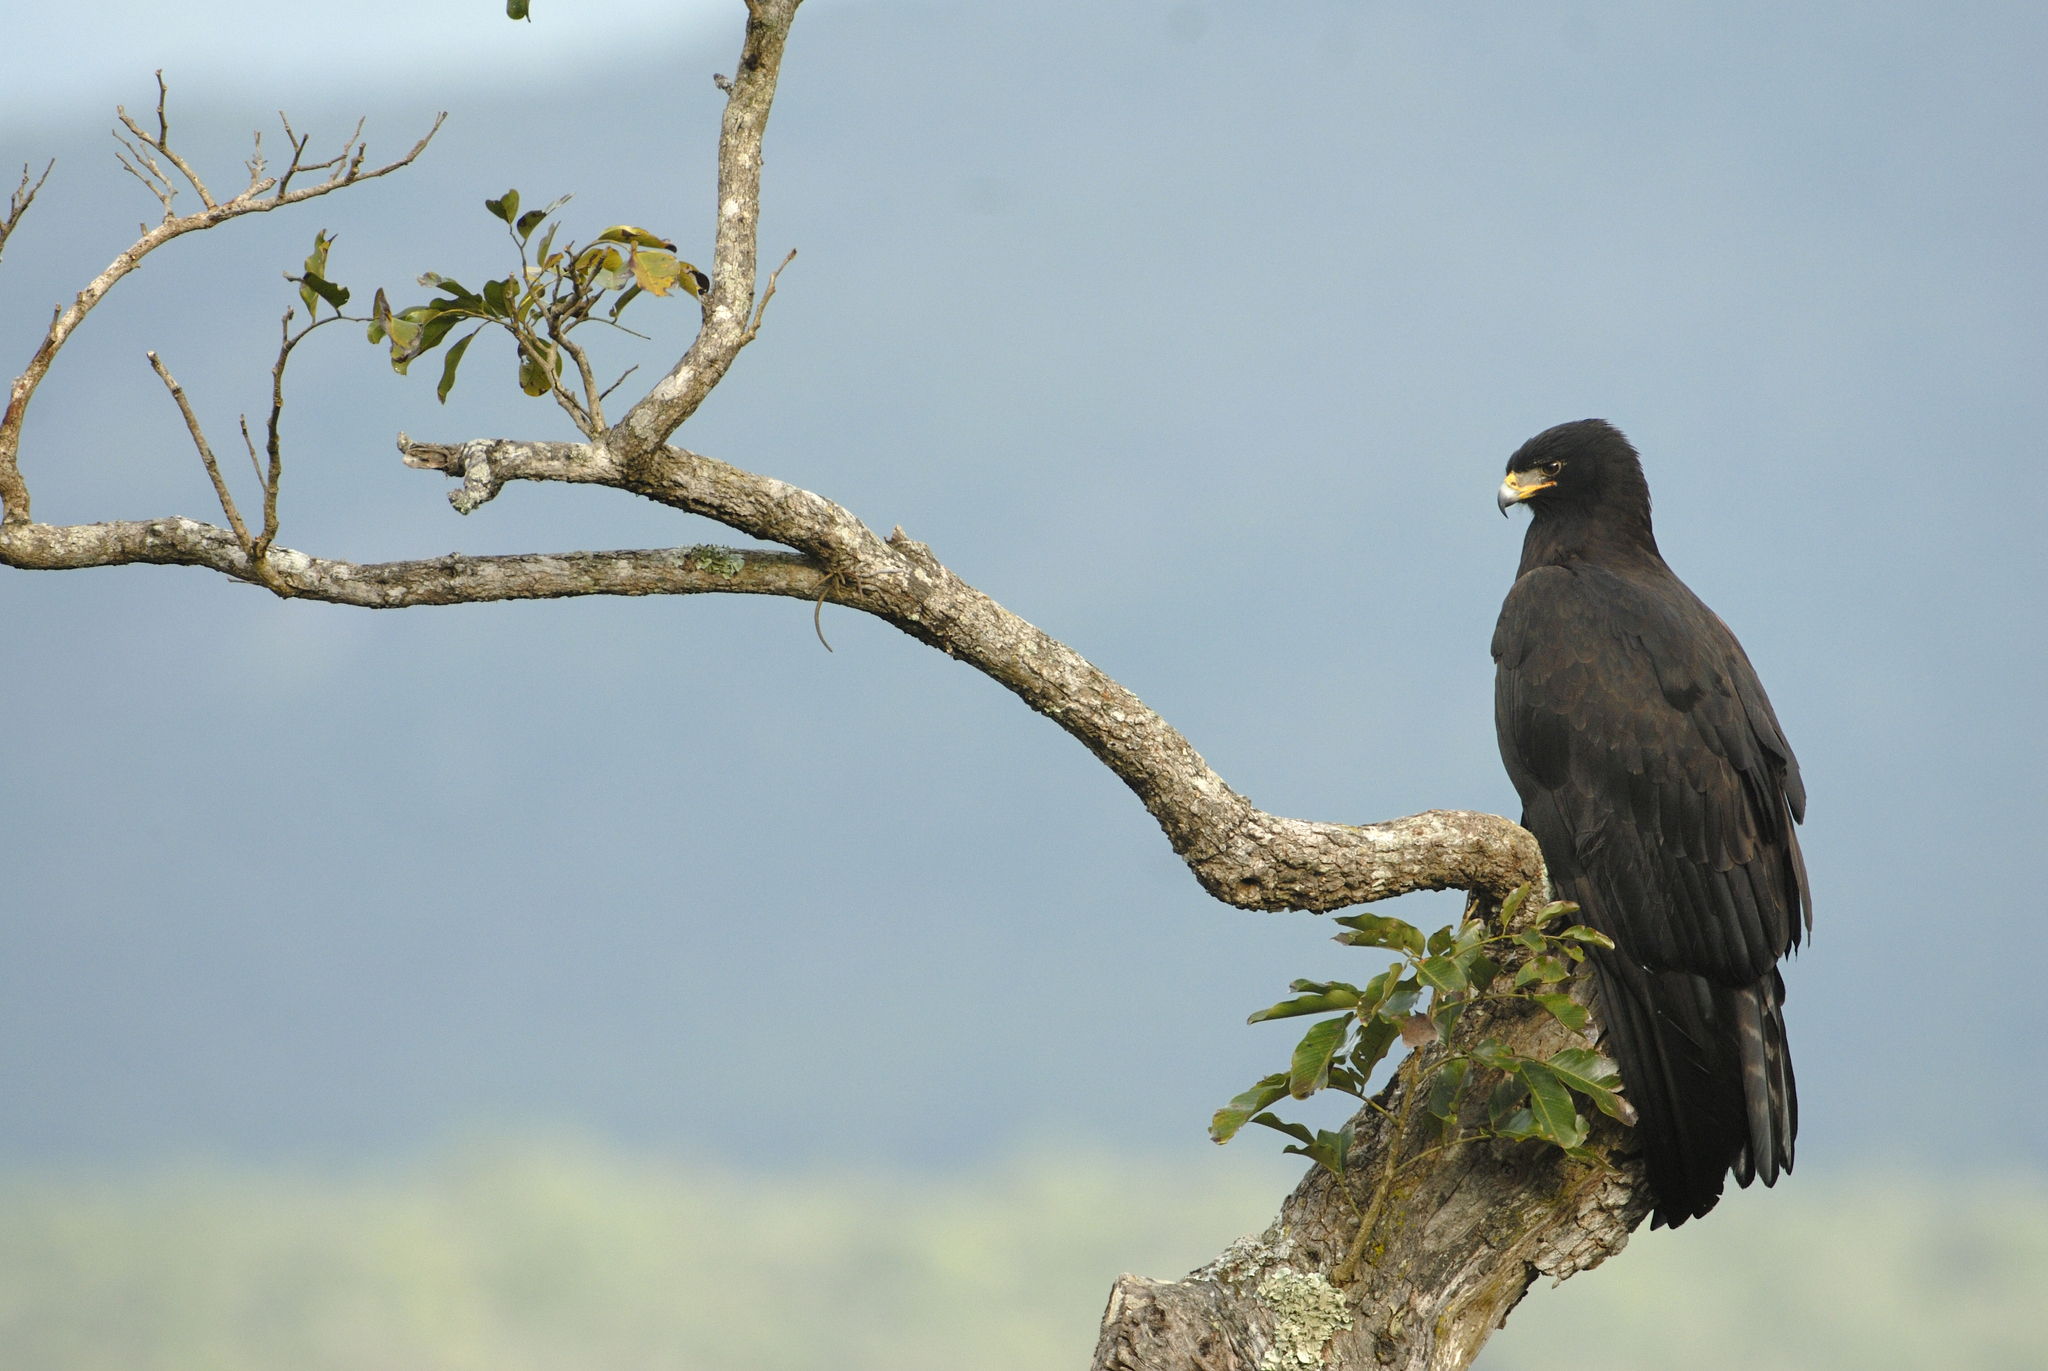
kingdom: Animalia
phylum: Chordata
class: Aves
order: Accipitriformes
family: Accipitridae
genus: Ictinaetus
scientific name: Ictinaetus malayensis
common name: Black eagle
